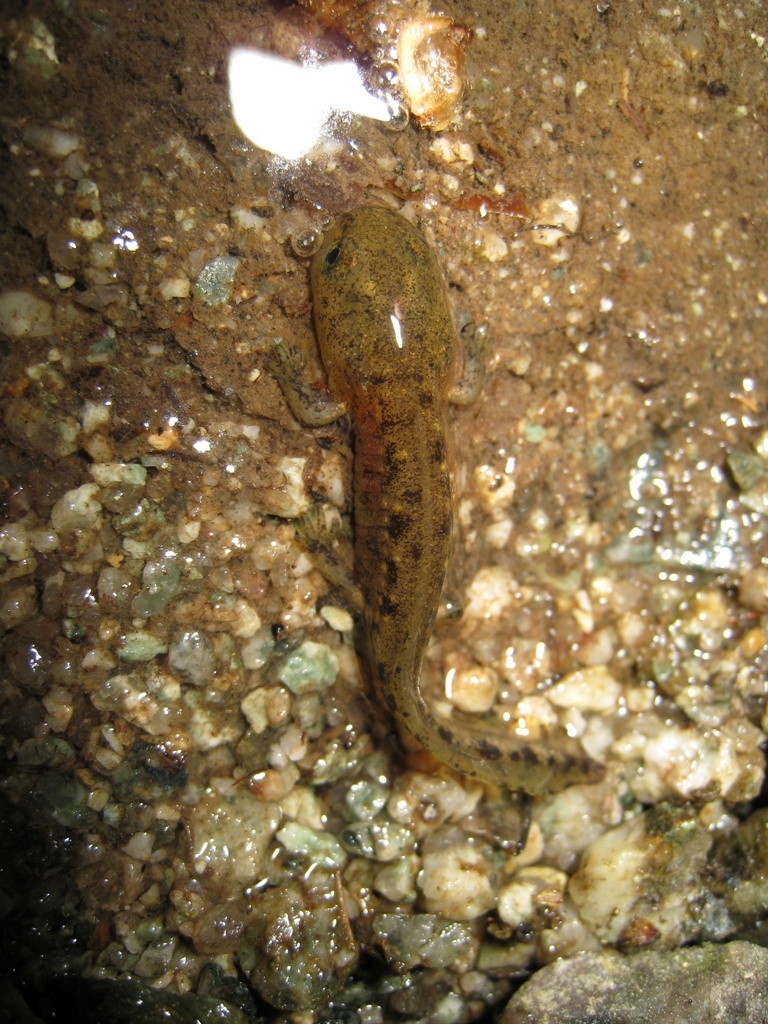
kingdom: Animalia
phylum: Chordata
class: Amphibia
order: Caudata
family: Salamandridae
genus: Salamandra
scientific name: Salamandra corsica
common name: Corsican fire salamander
